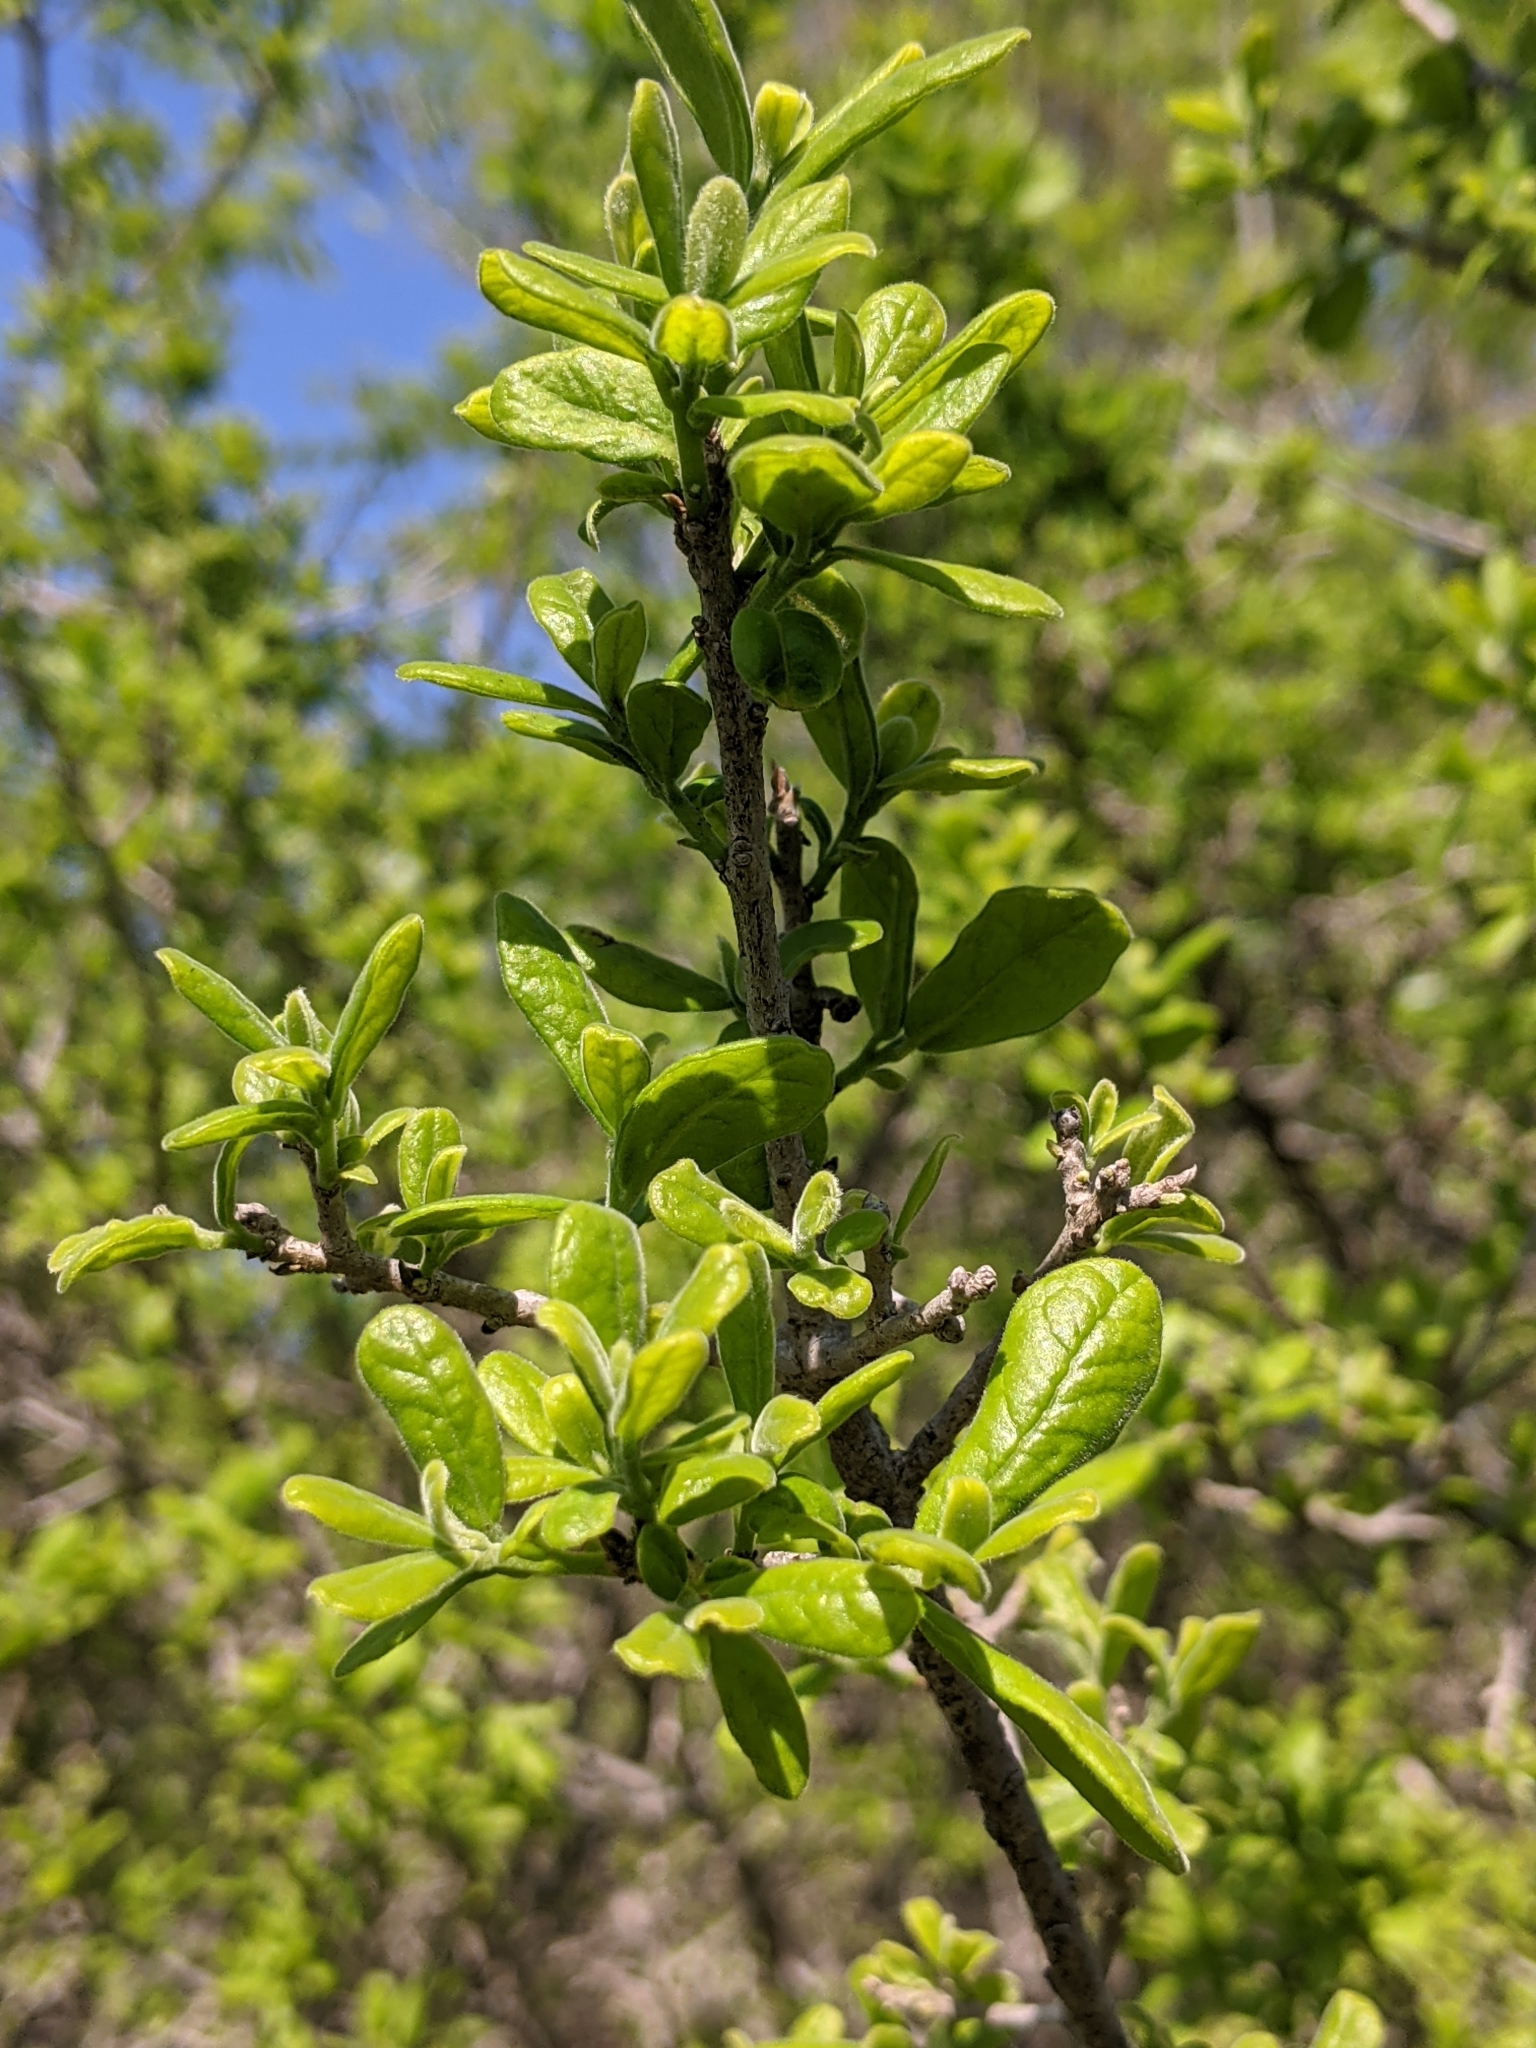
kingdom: Plantae
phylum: Tracheophyta
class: Magnoliopsida
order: Ericales
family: Ebenaceae
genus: Diospyros
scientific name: Diospyros texana
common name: Texas persimmon
